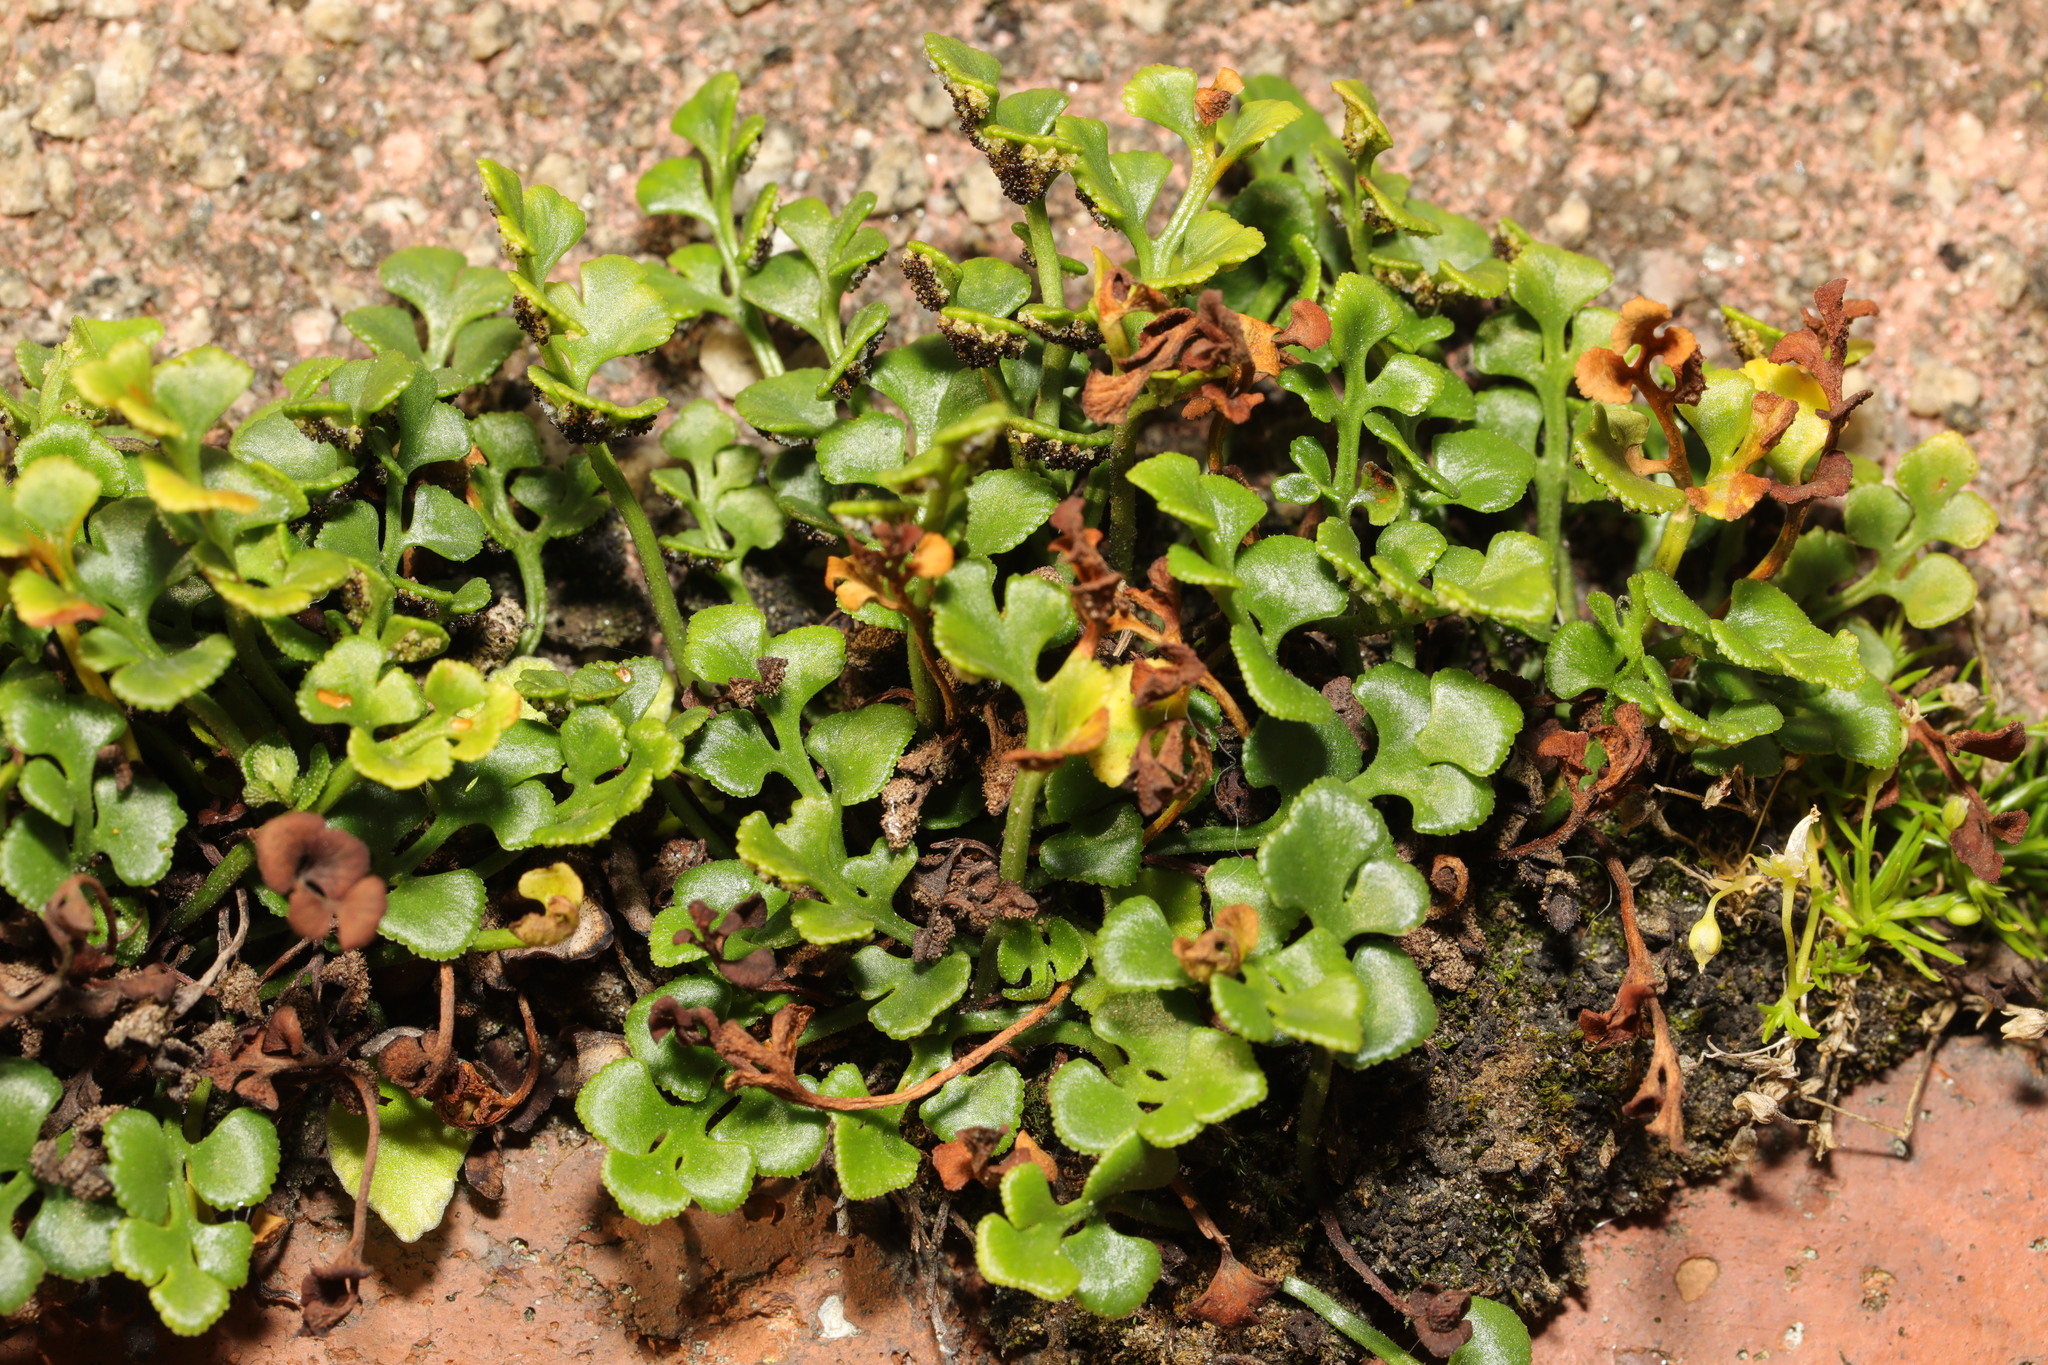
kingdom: Plantae
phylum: Tracheophyta
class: Polypodiopsida
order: Polypodiales
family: Aspleniaceae
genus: Asplenium
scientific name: Asplenium ruta-muraria
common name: Wall-rue
